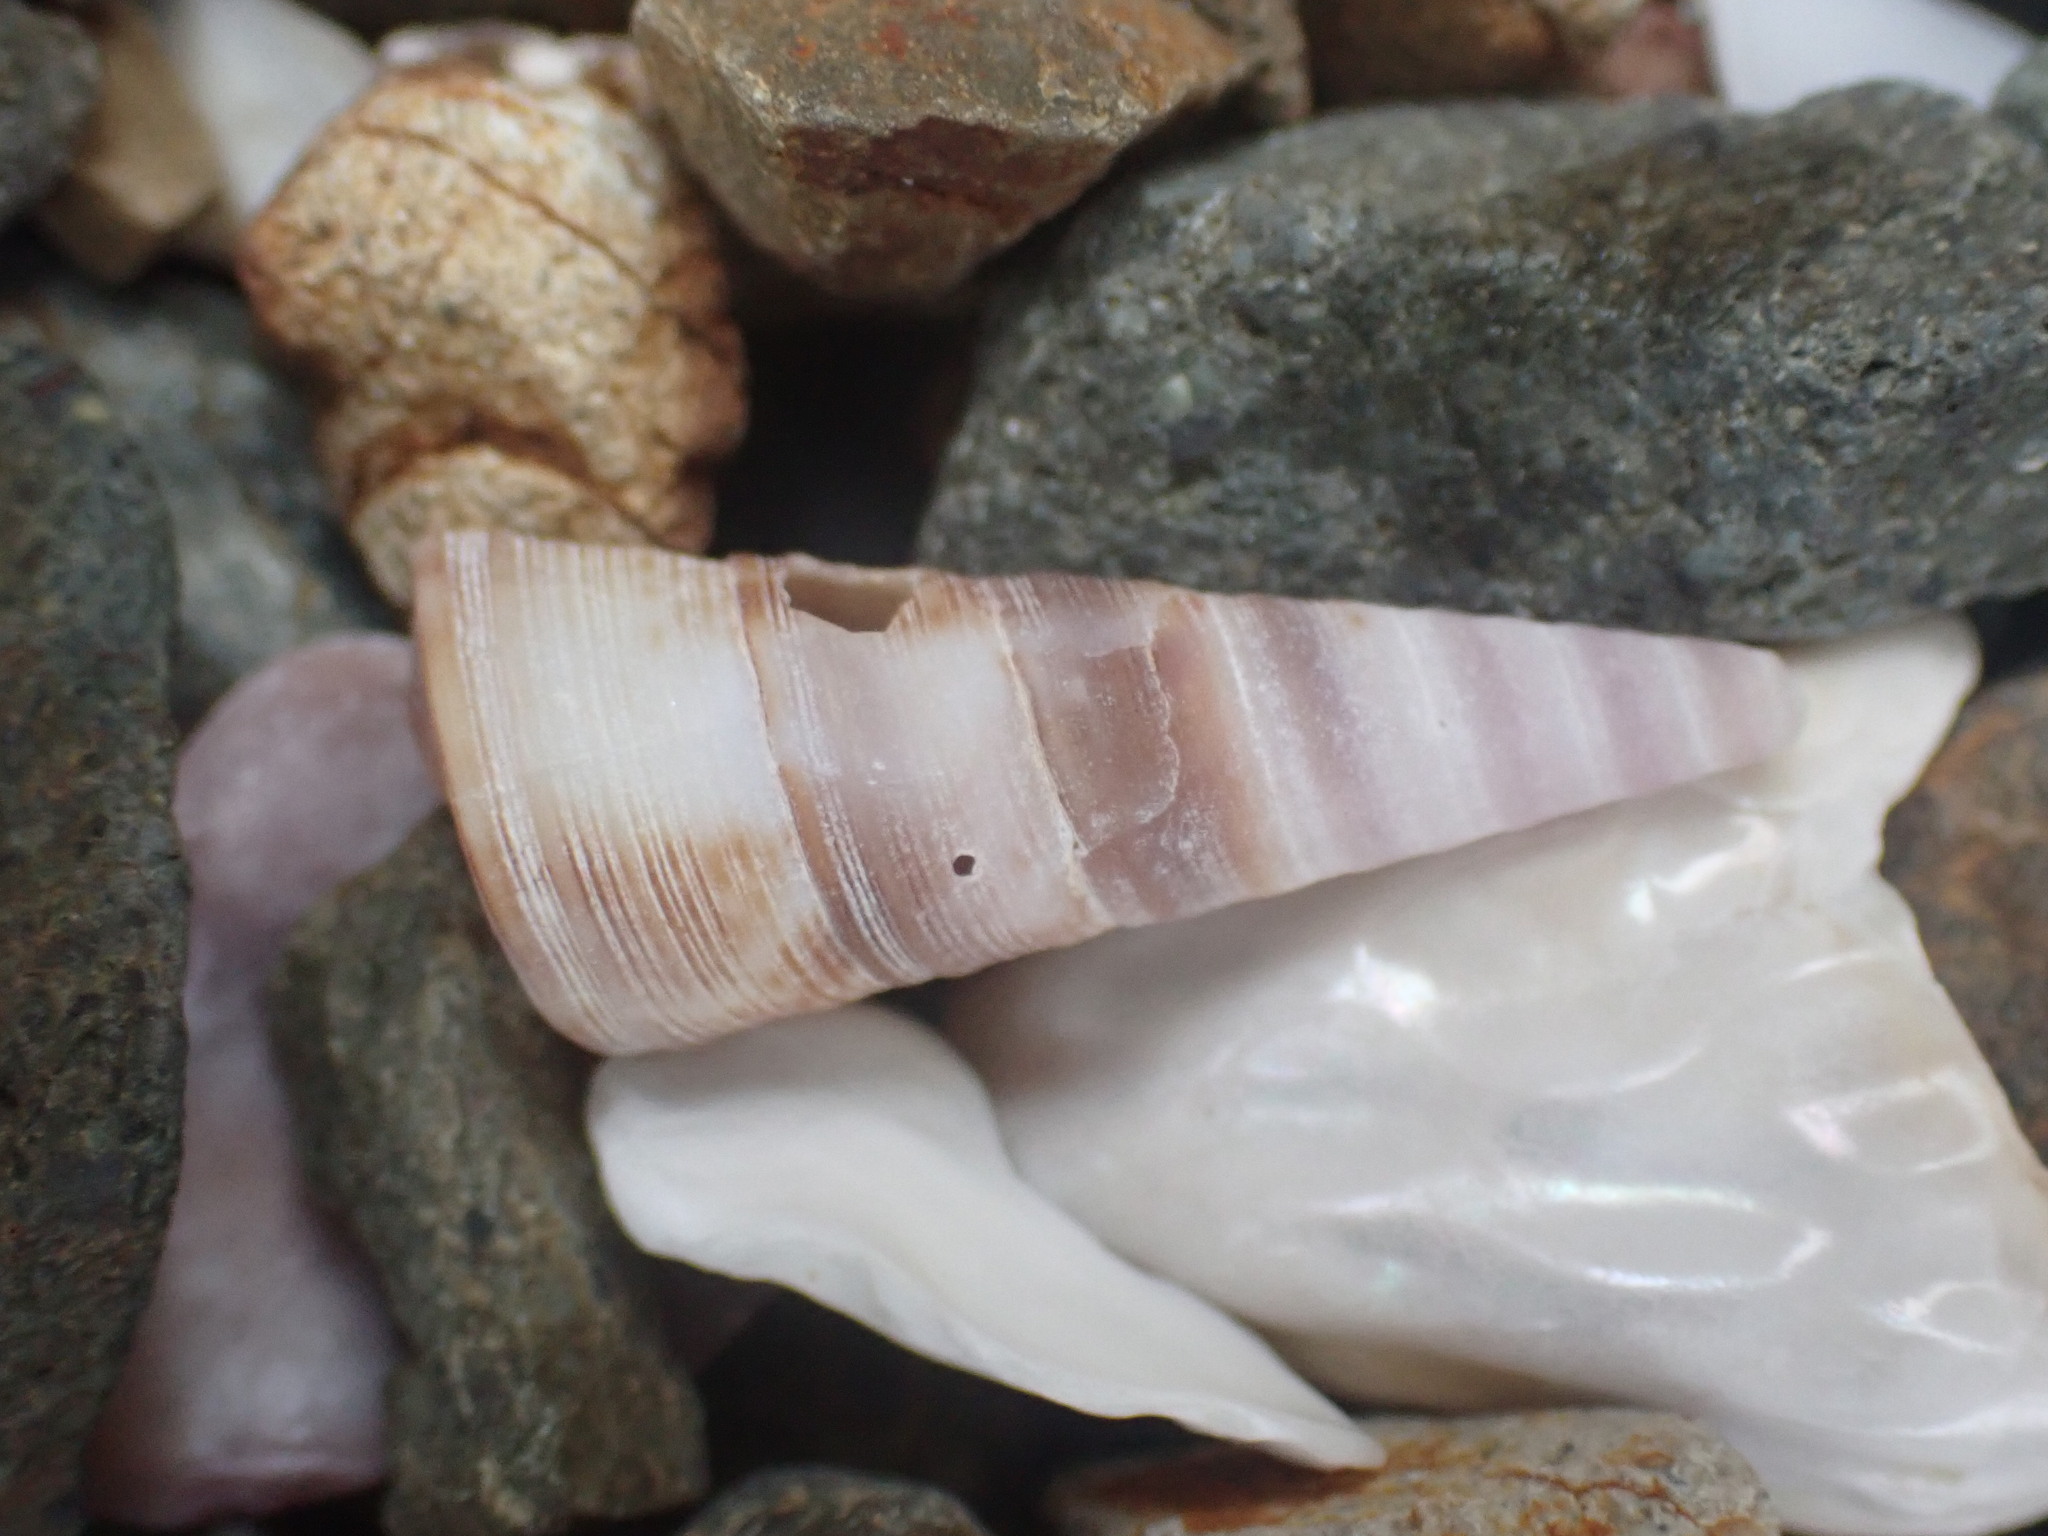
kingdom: Animalia
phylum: Mollusca
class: Gastropoda
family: Turritellidae
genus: Maoricolpus
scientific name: Maoricolpus roseus
